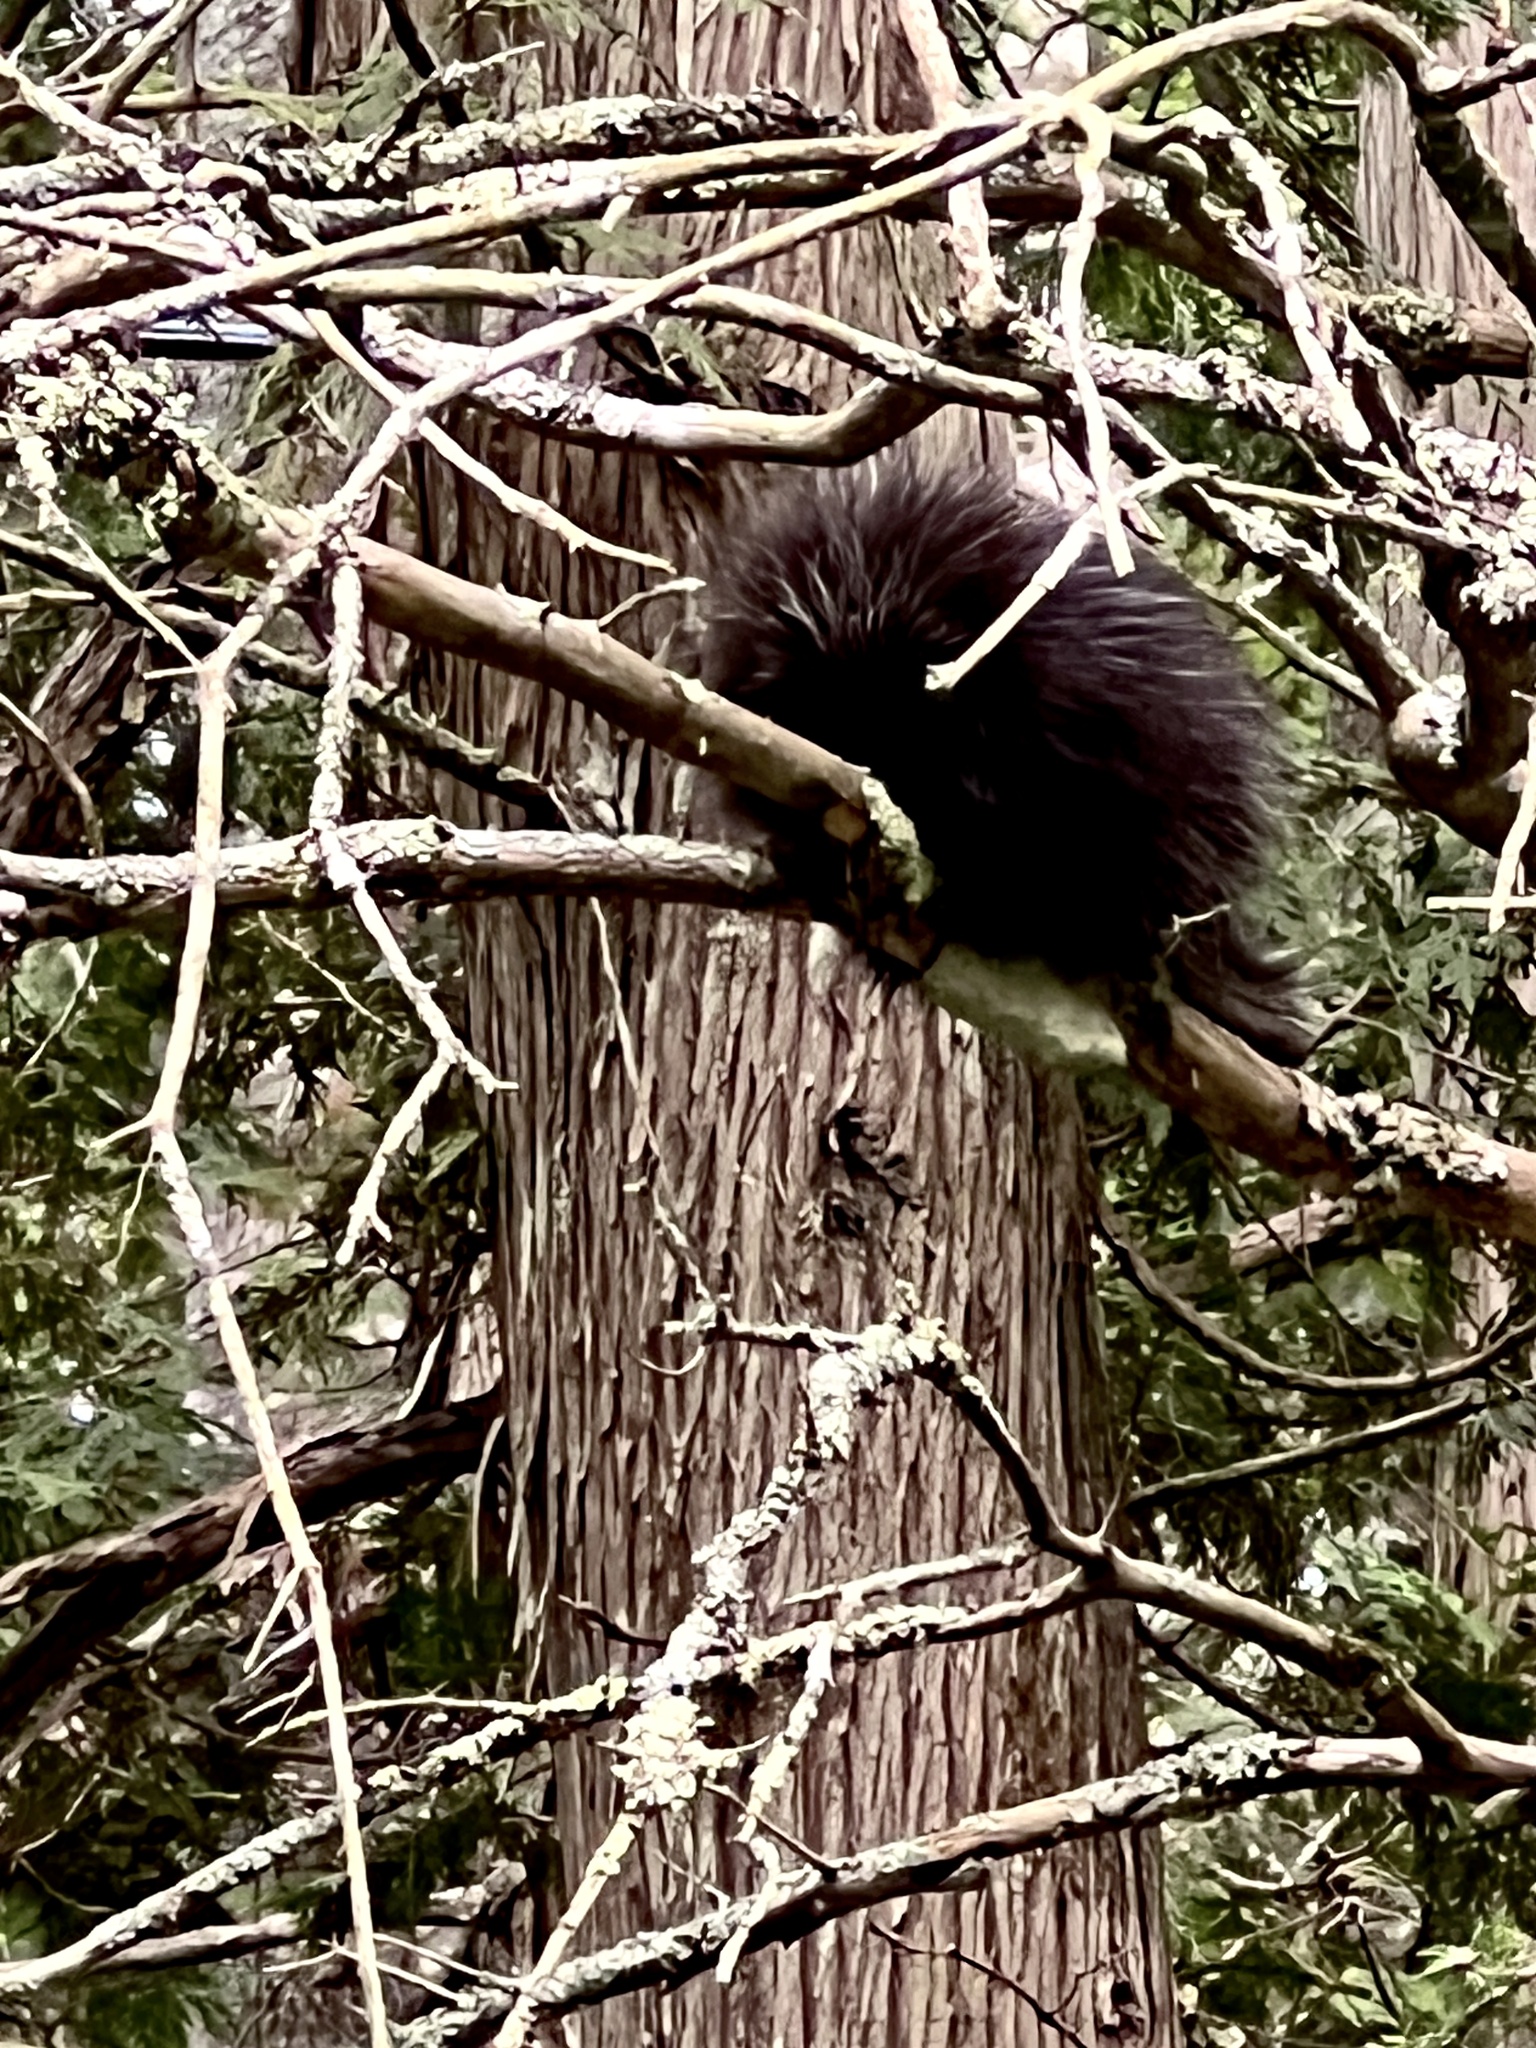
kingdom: Animalia
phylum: Chordata
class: Mammalia
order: Rodentia
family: Erethizontidae
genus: Erethizon
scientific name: Erethizon dorsatus
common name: North american porcupine
